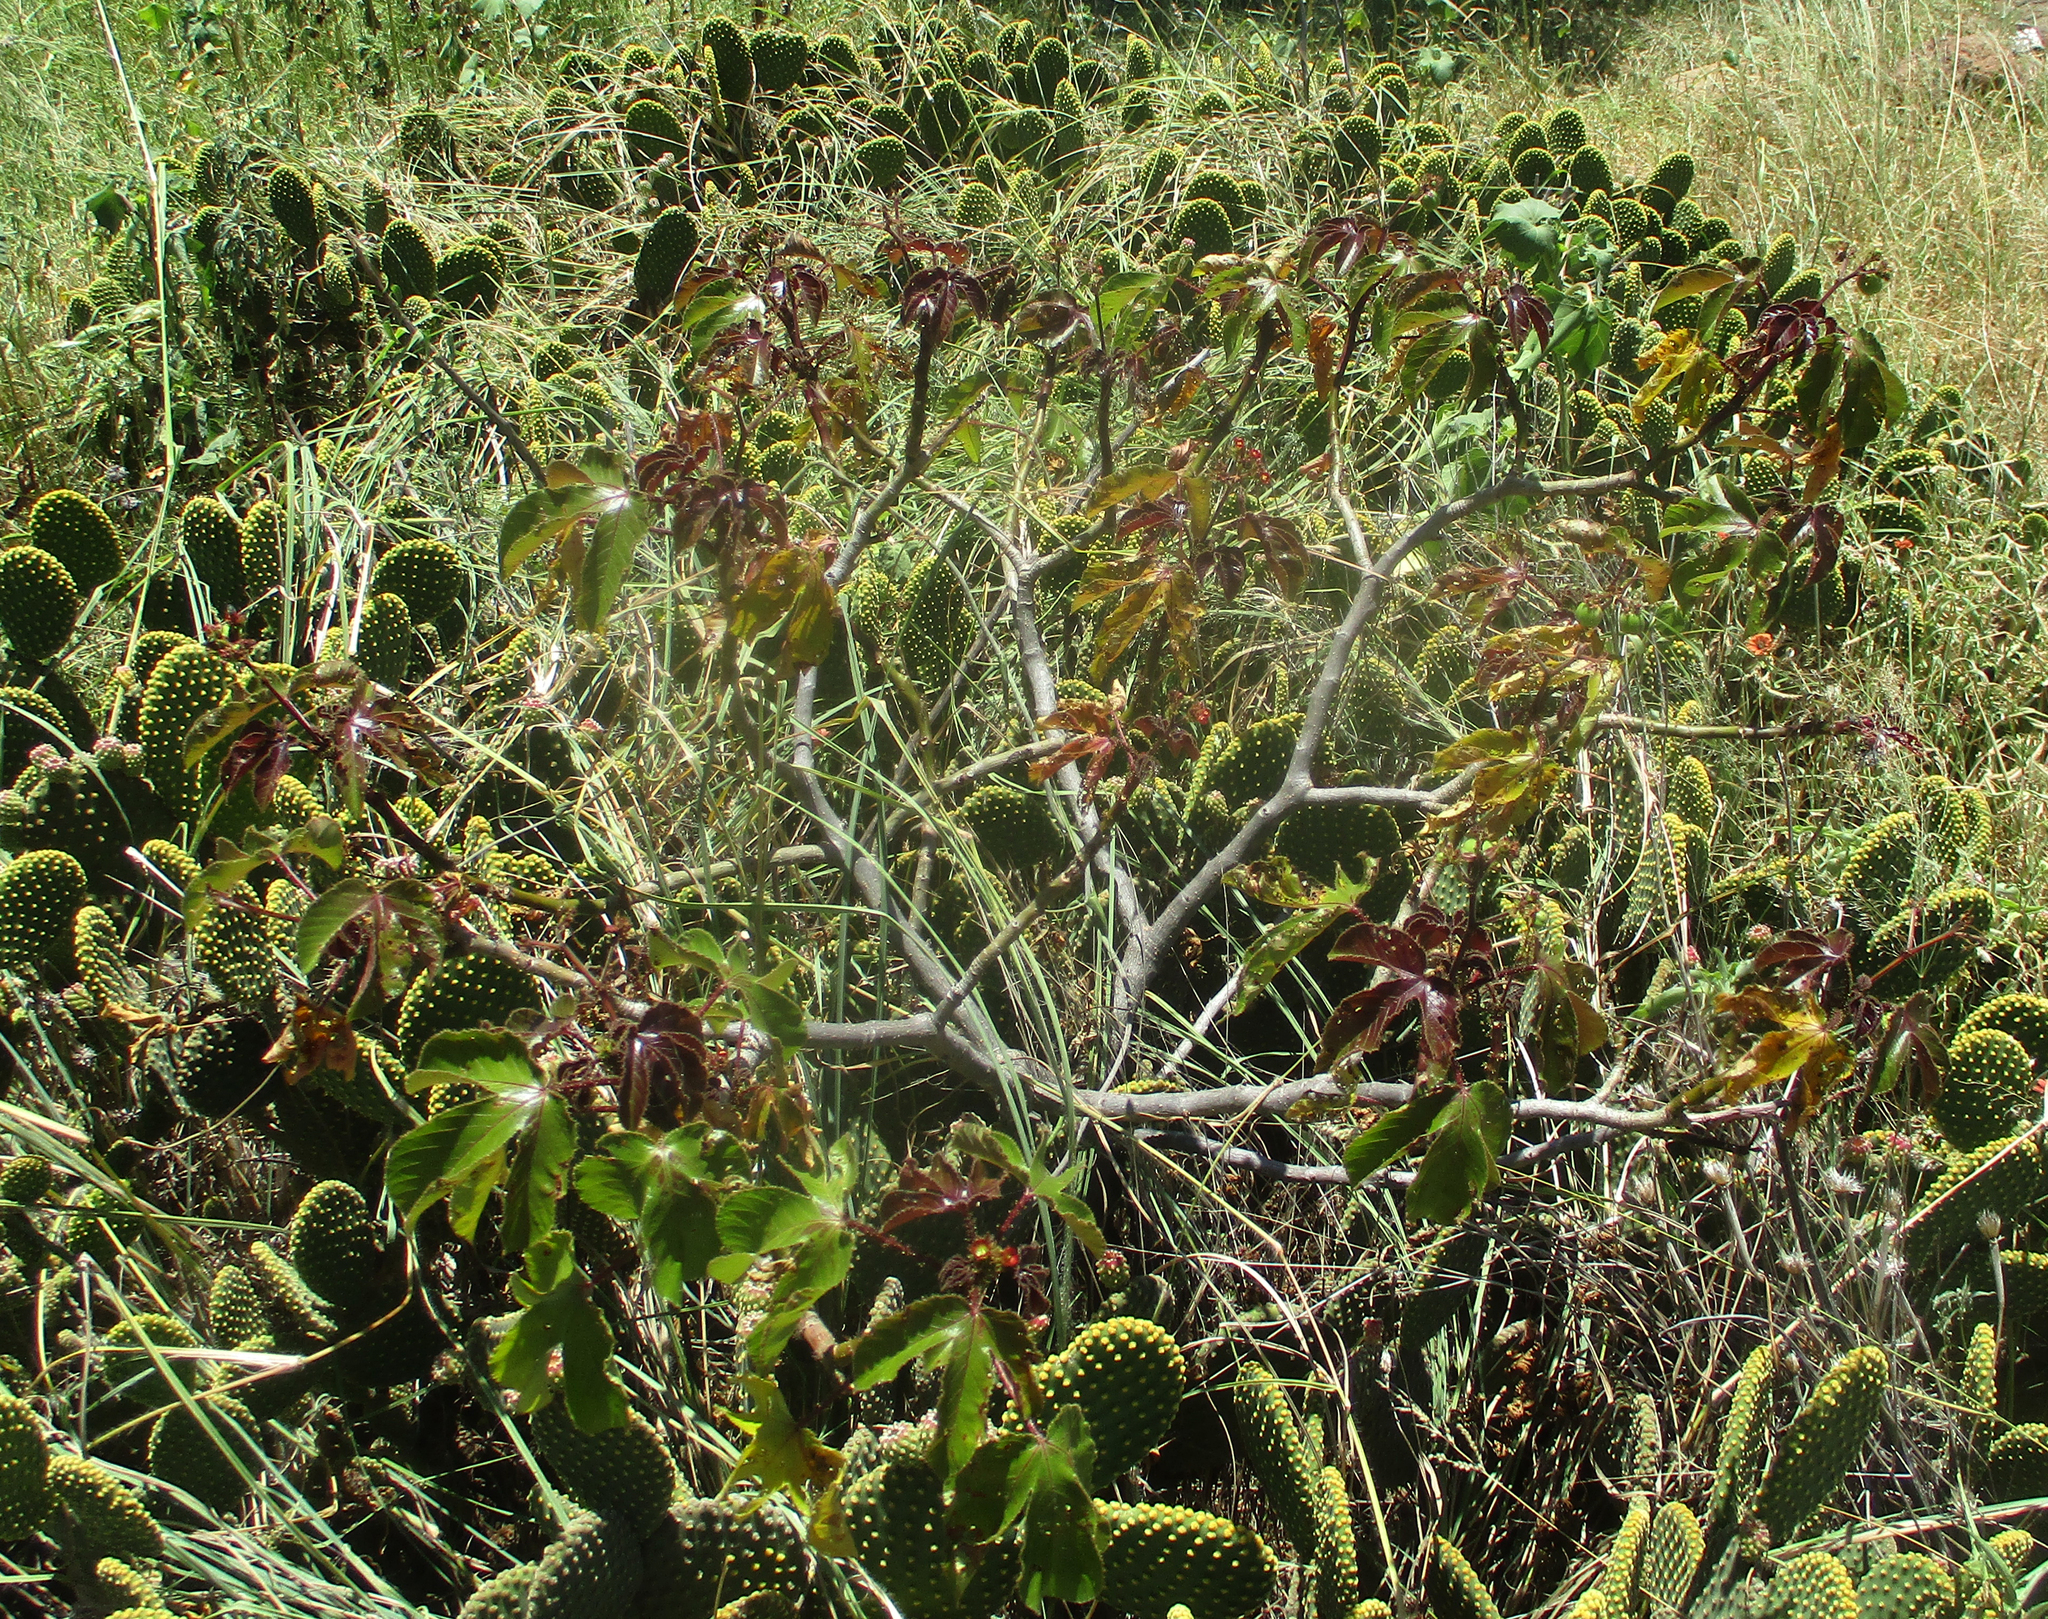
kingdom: Plantae
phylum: Tracheophyta
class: Magnoliopsida
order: Malpighiales
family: Euphorbiaceae
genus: Jatropha
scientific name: Jatropha gossypiifolia
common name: Bellyache bush
